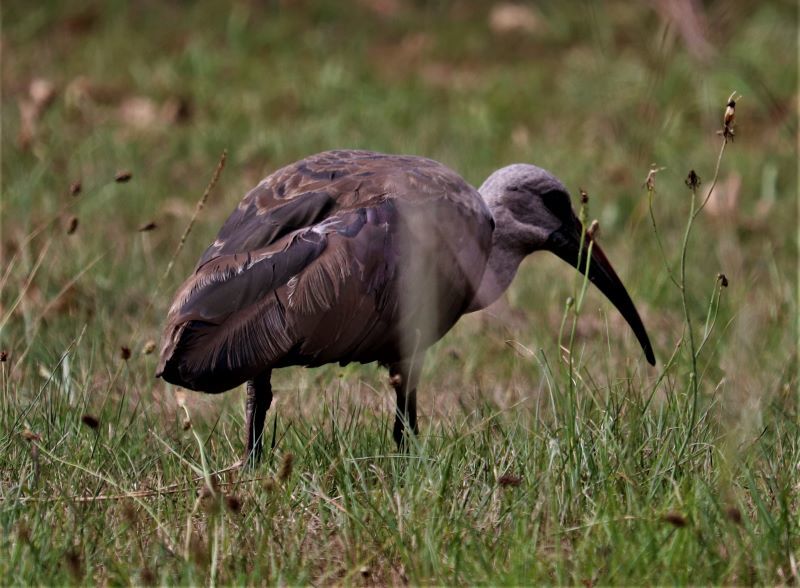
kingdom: Animalia
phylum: Chordata
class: Aves
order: Pelecaniformes
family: Threskiornithidae
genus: Bostrychia
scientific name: Bostrychia hagedash
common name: Hadada ibis
